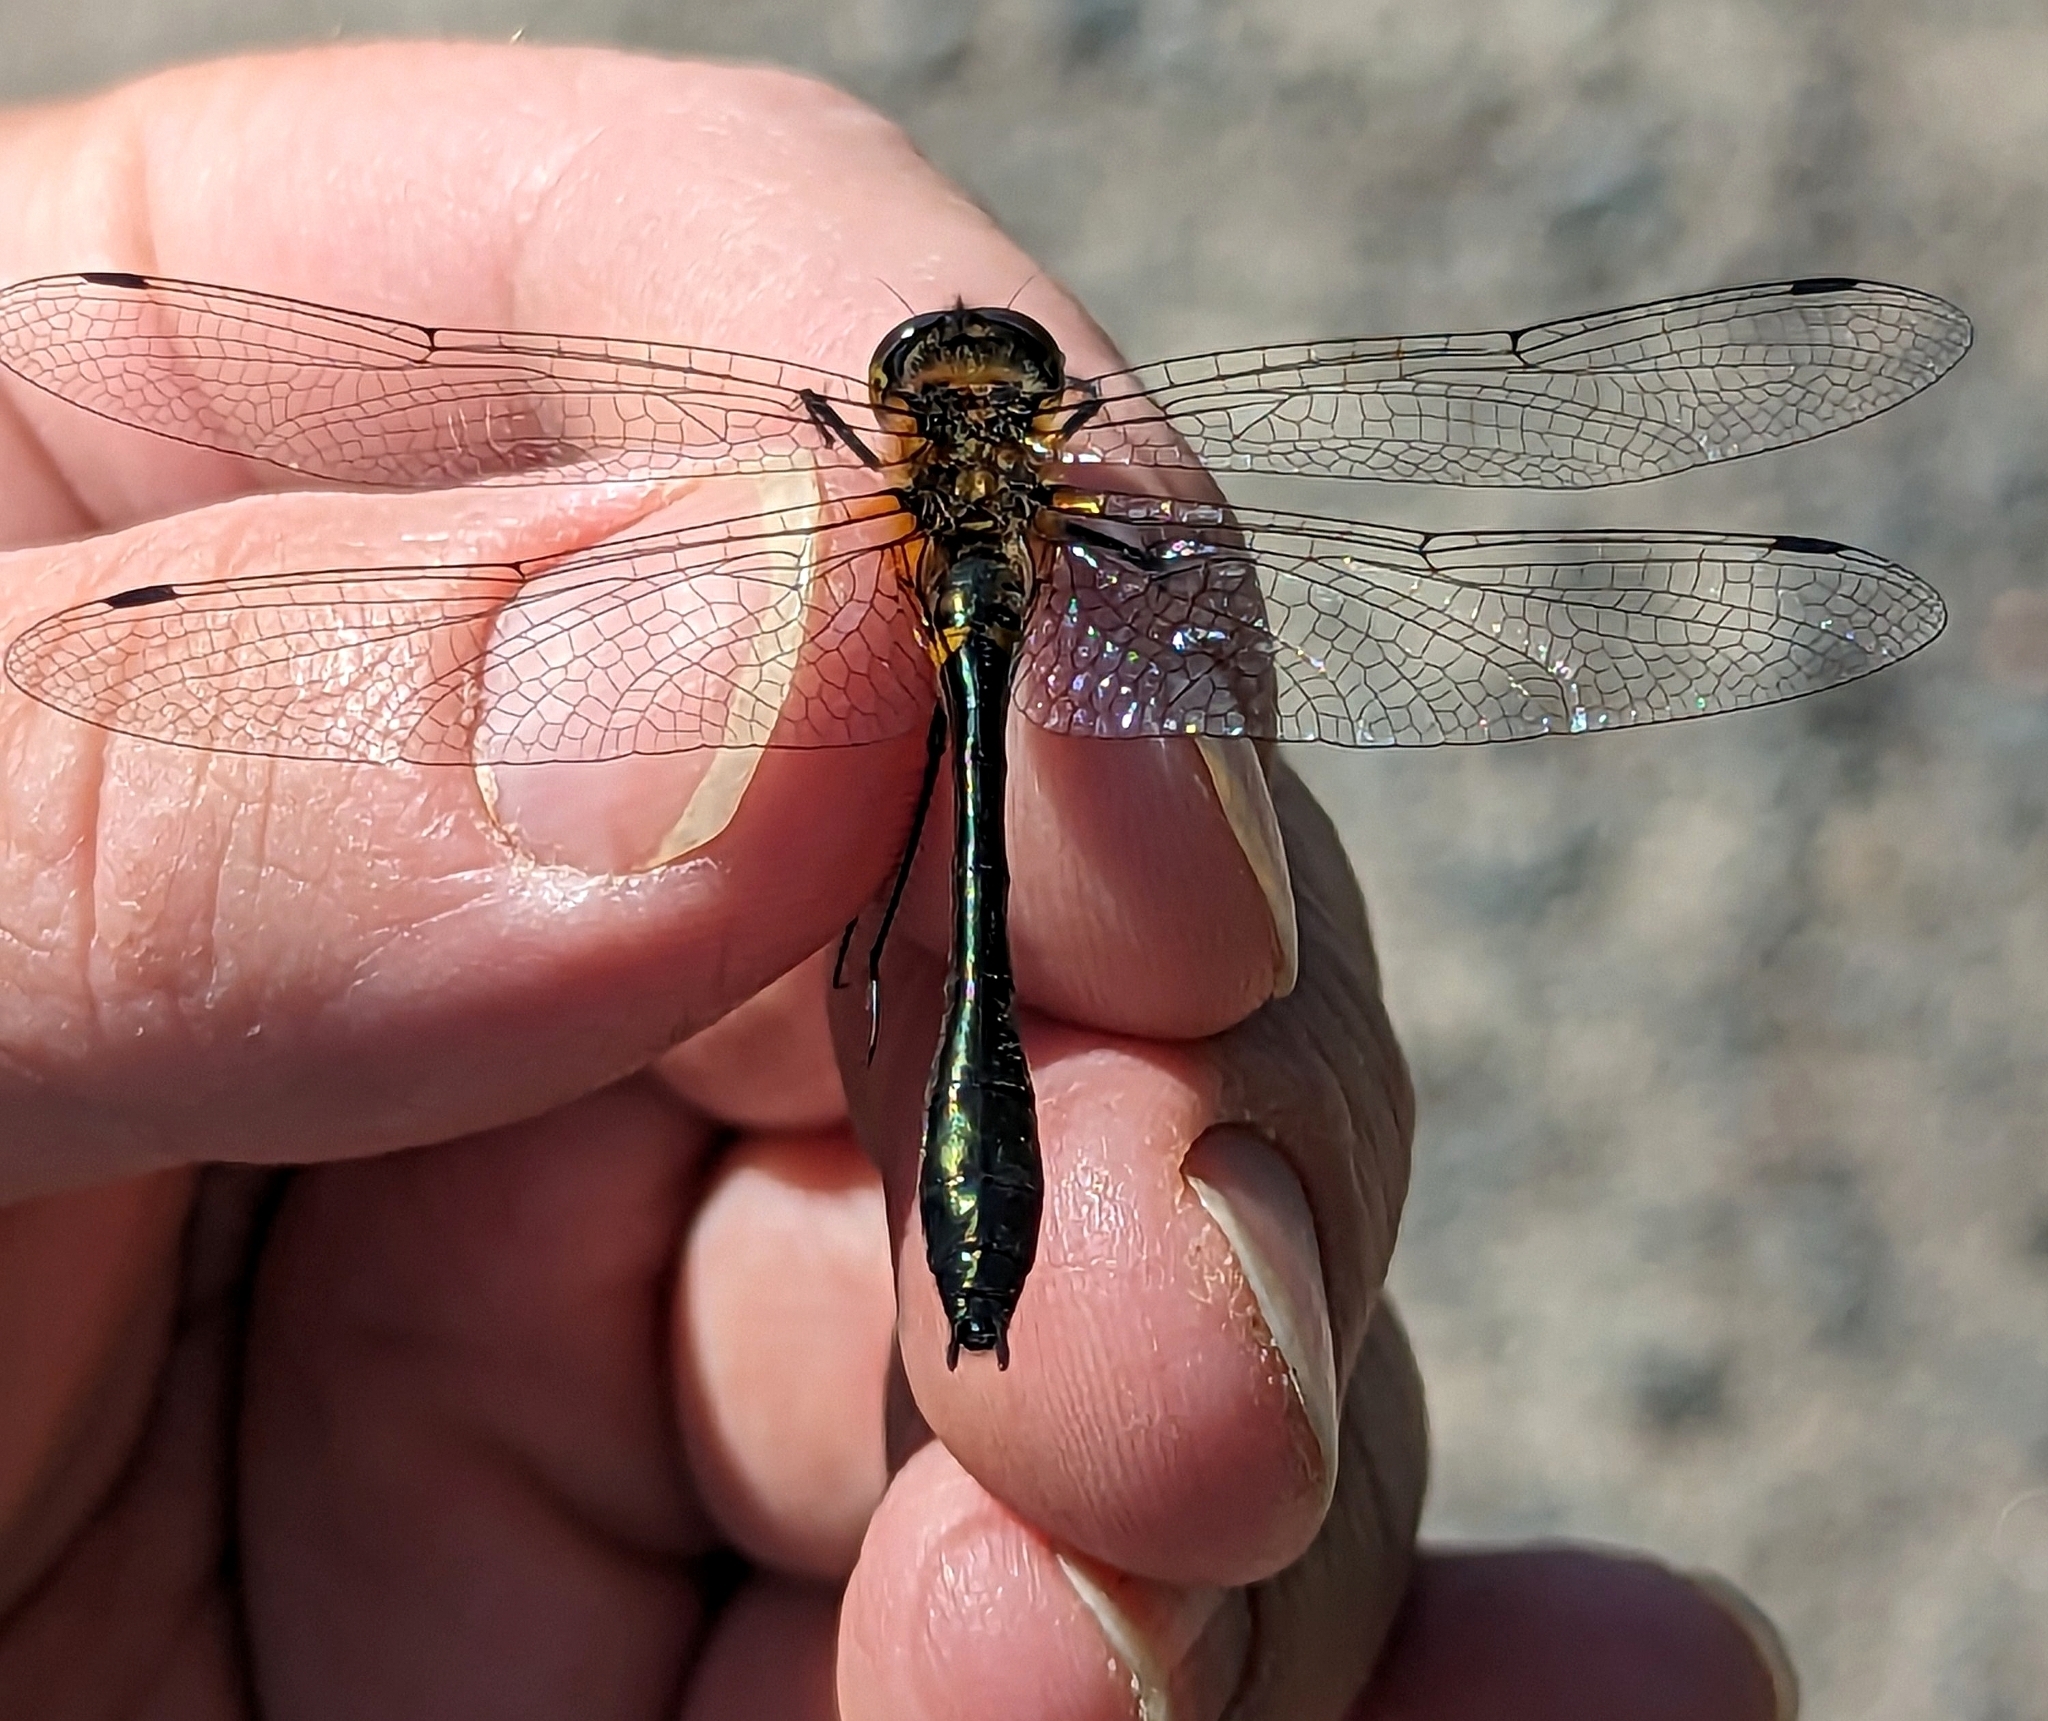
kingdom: Animalia
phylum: Arthropoda
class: Insecta
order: Odonata
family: Corduliidae
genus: Dorocordulia
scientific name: Dorocordulia libera
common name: Racket-tailed emerald
